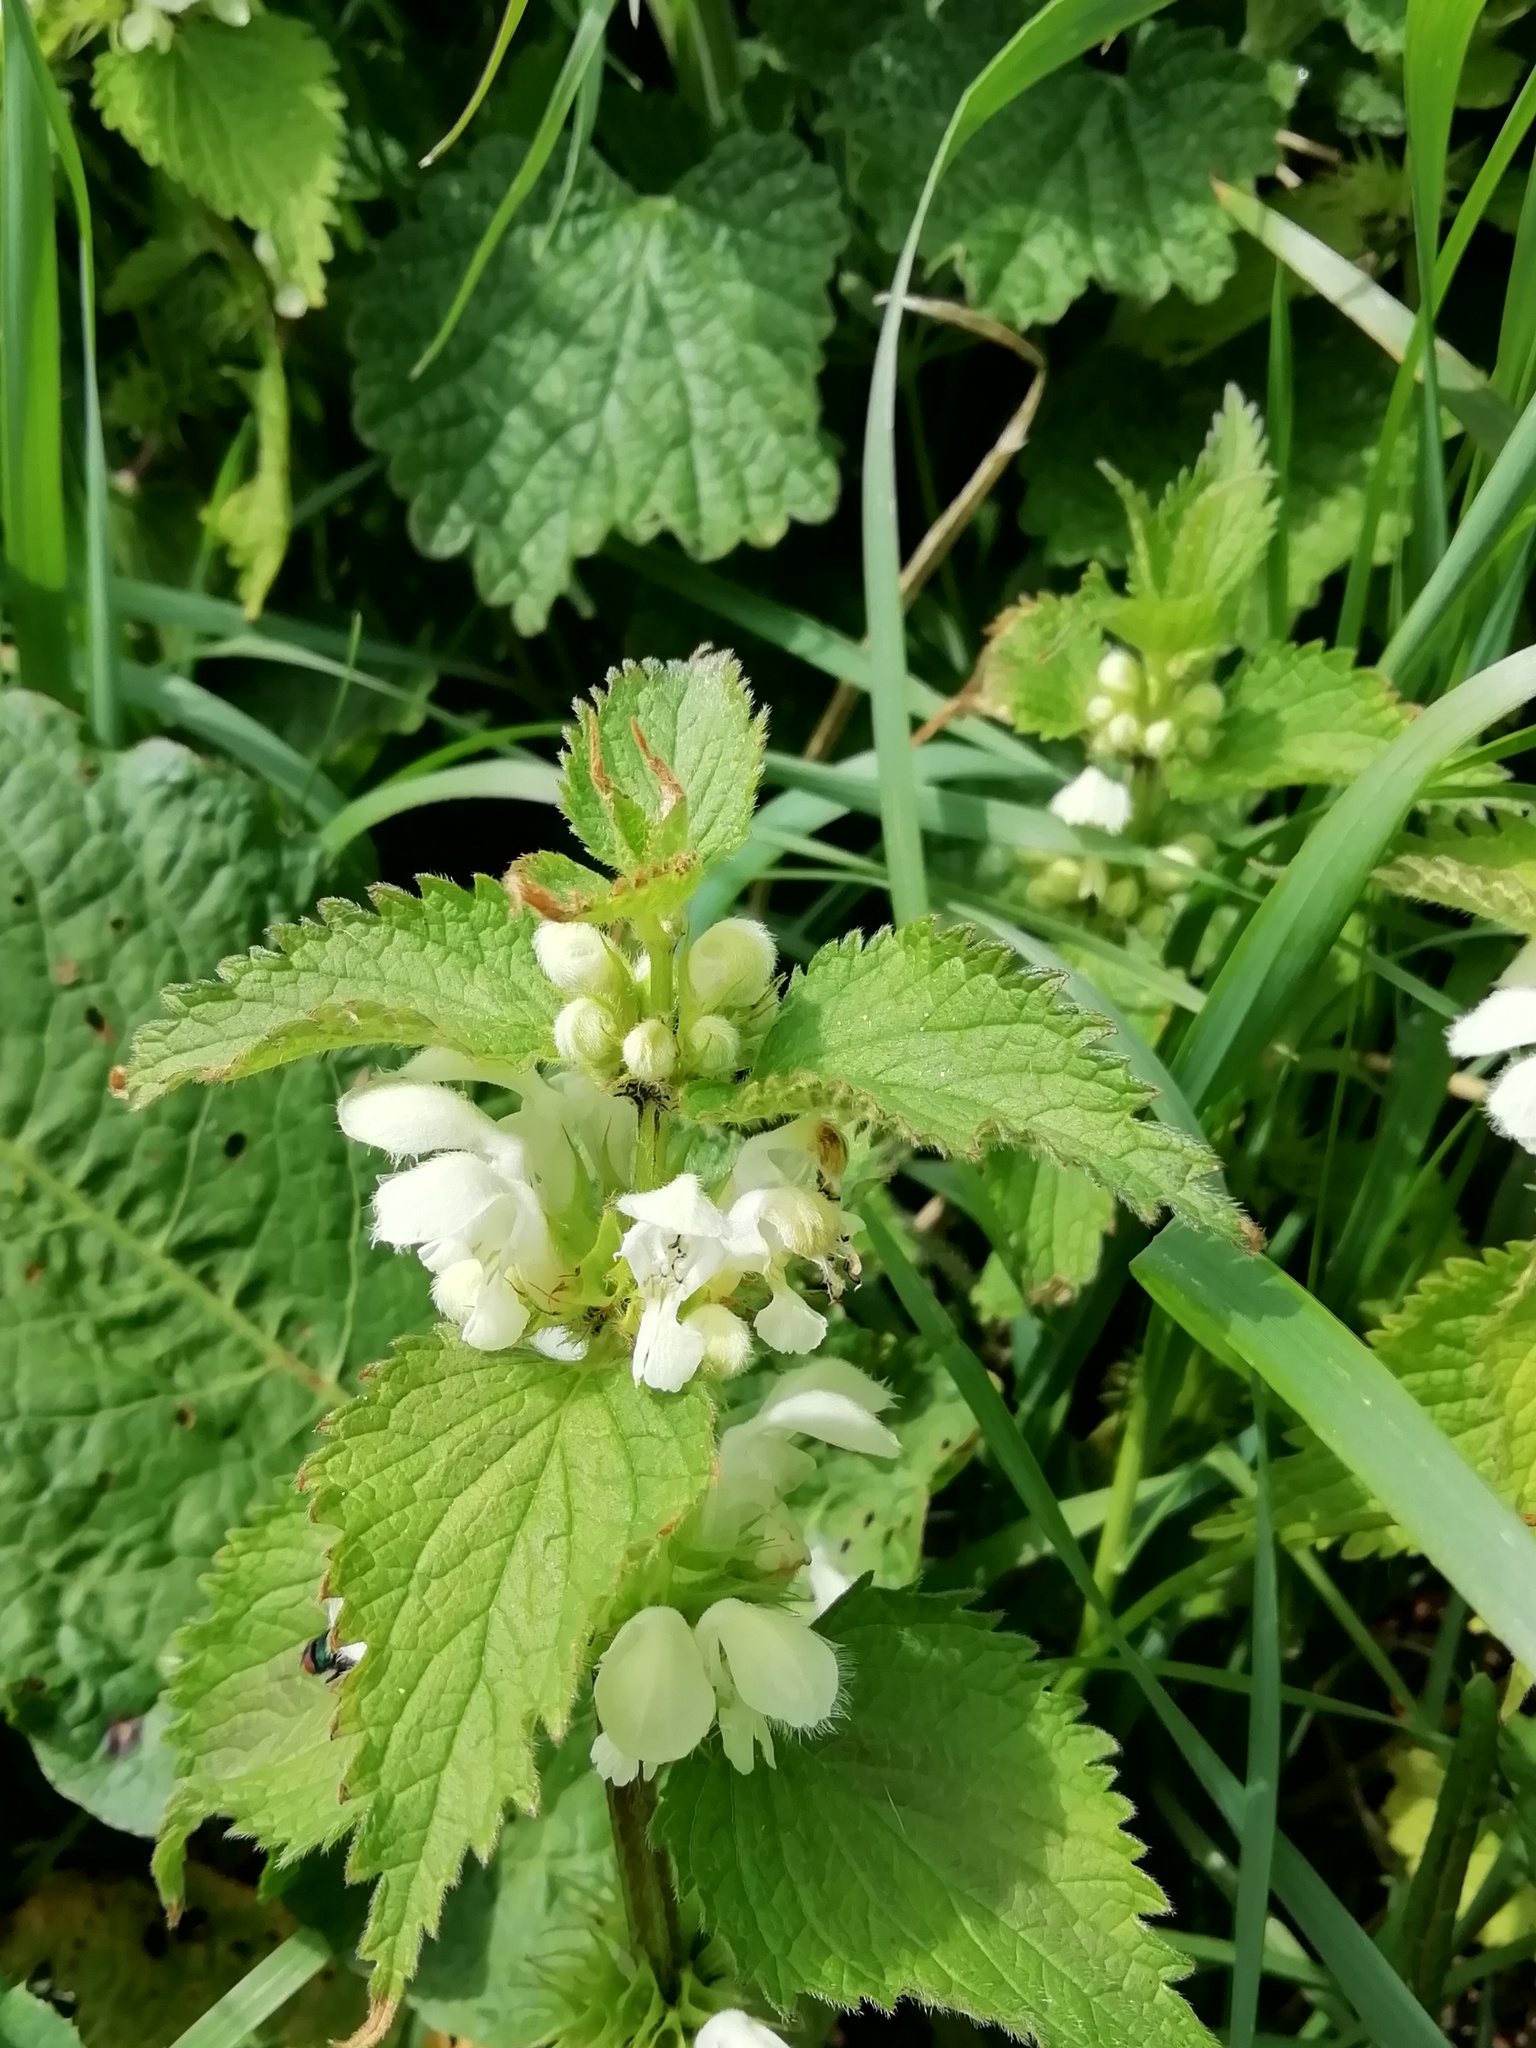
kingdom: Plantae
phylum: Tracheophyta
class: Magnoliopsida
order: Lamiales
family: Lamiaceae
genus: Lamium
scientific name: Lamium album
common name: White dead-nettle
